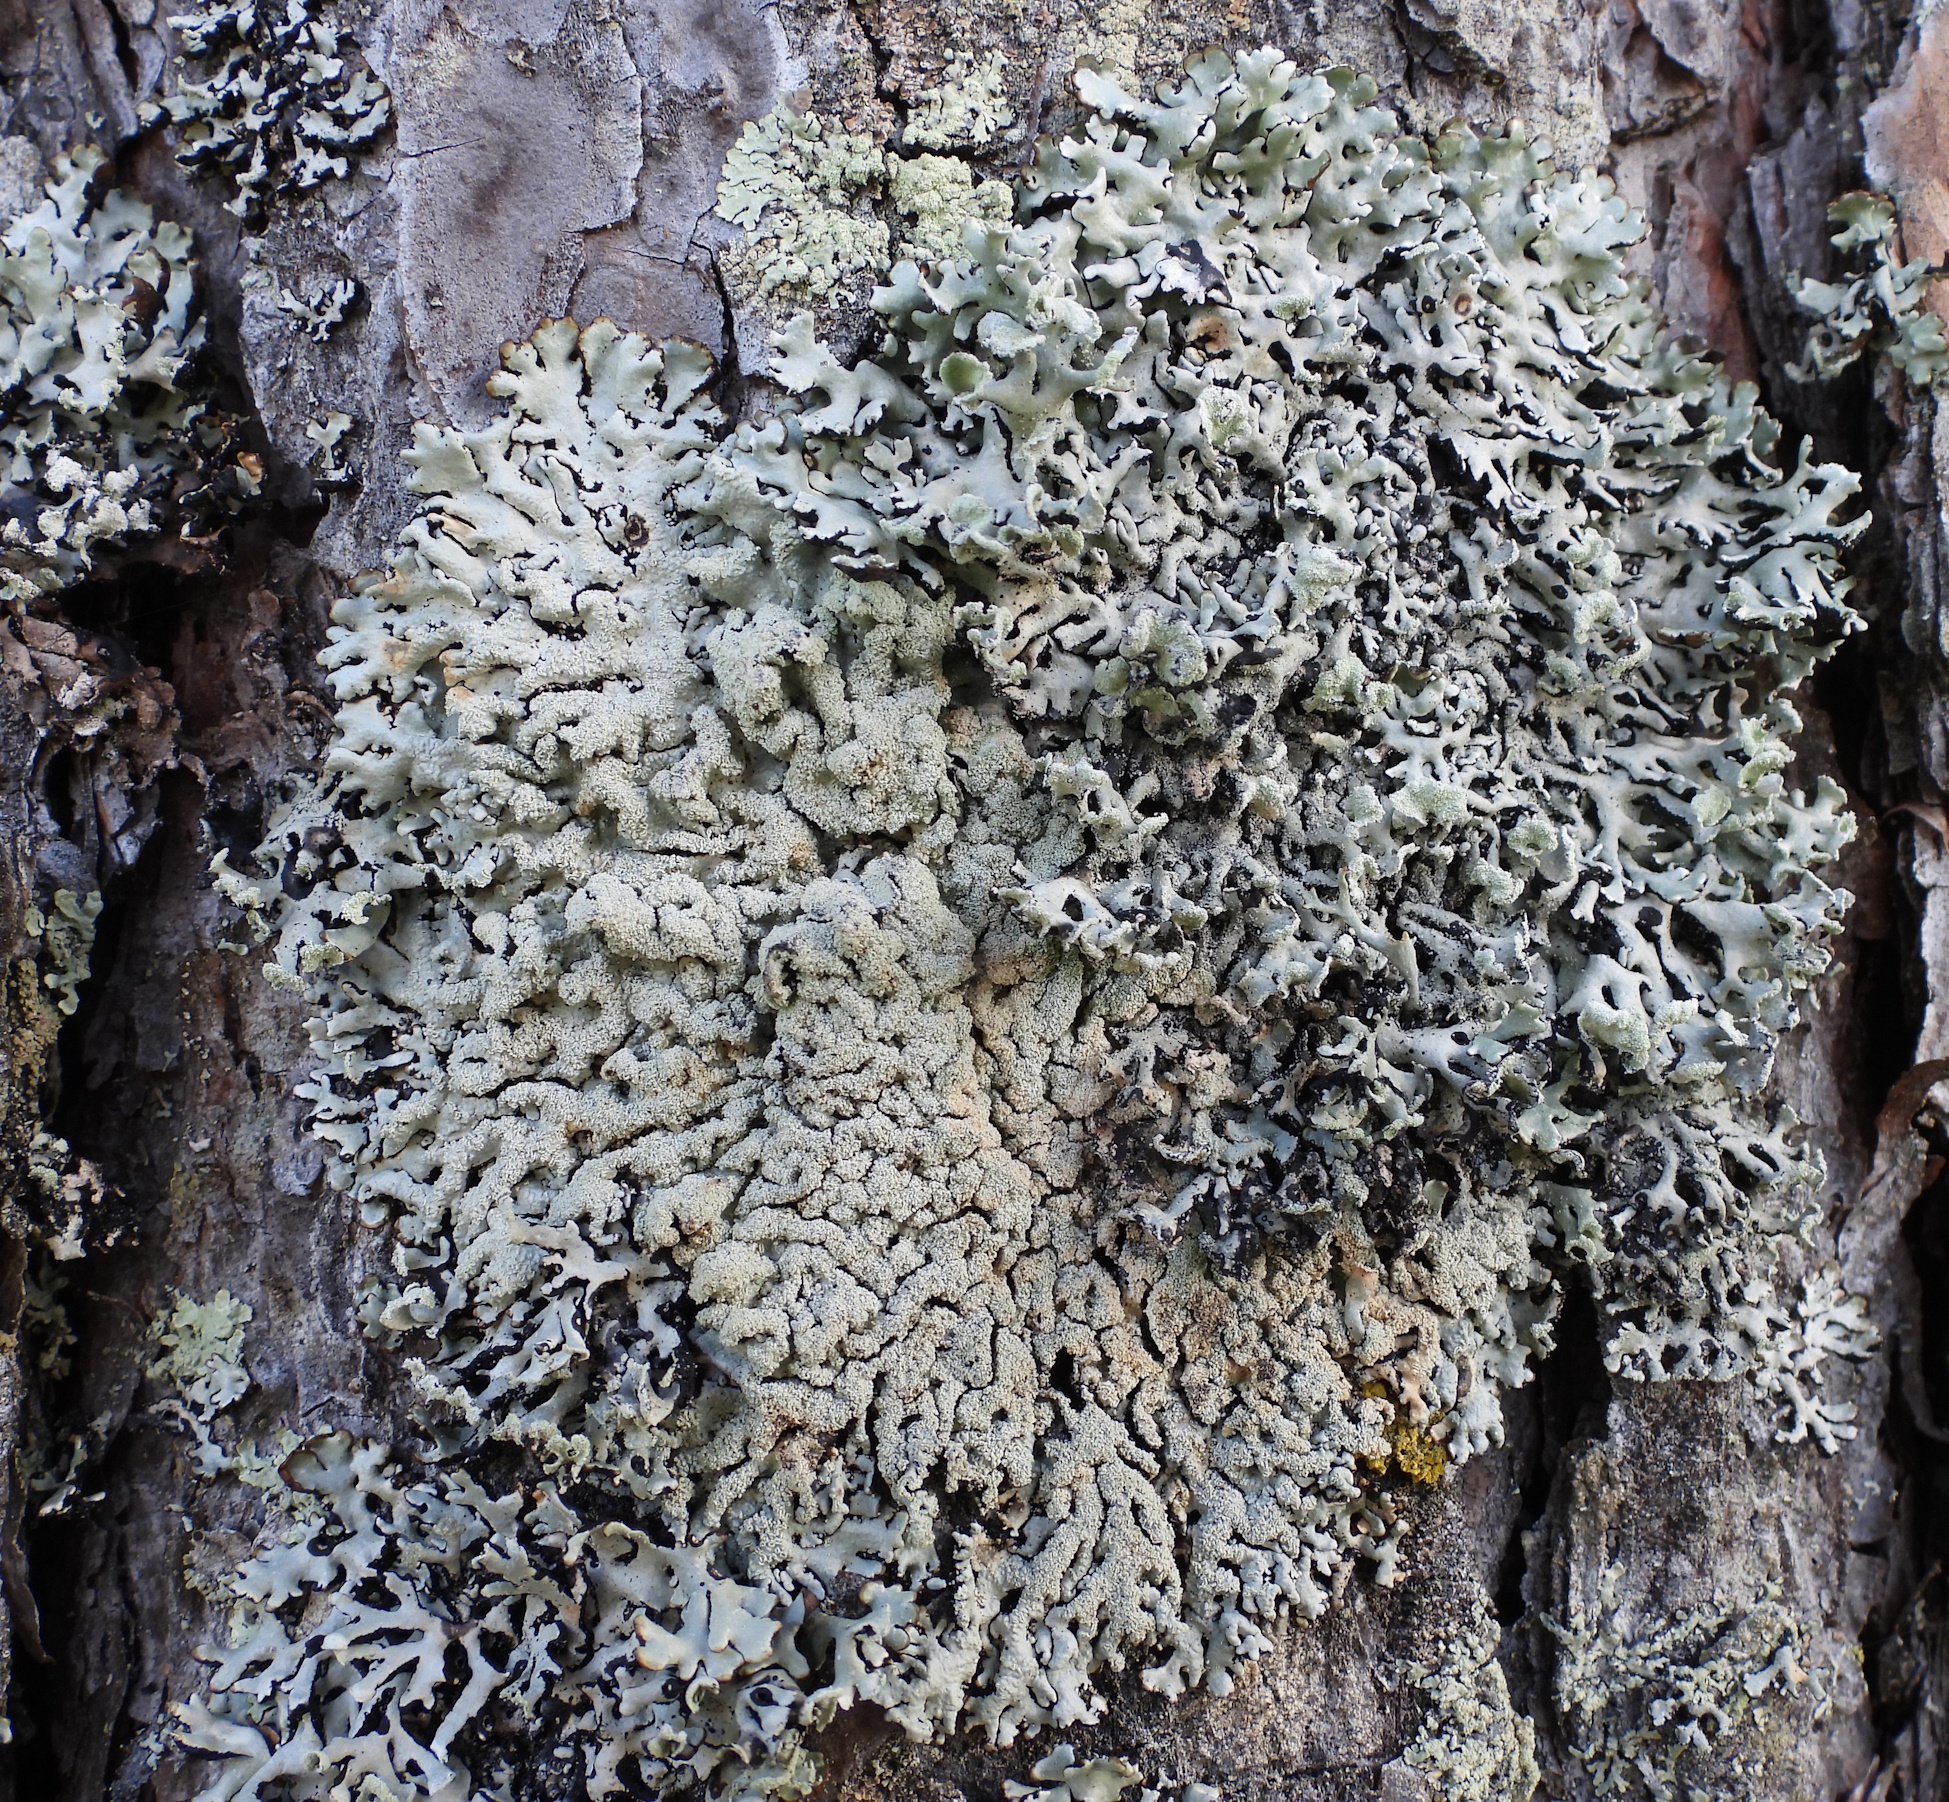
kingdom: Fungi
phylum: Ascomycota
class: Lecanoromycetes
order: Lecanorales
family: Parmeliaceae
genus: Hypogymnia
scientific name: Hypogymnia farinacea
